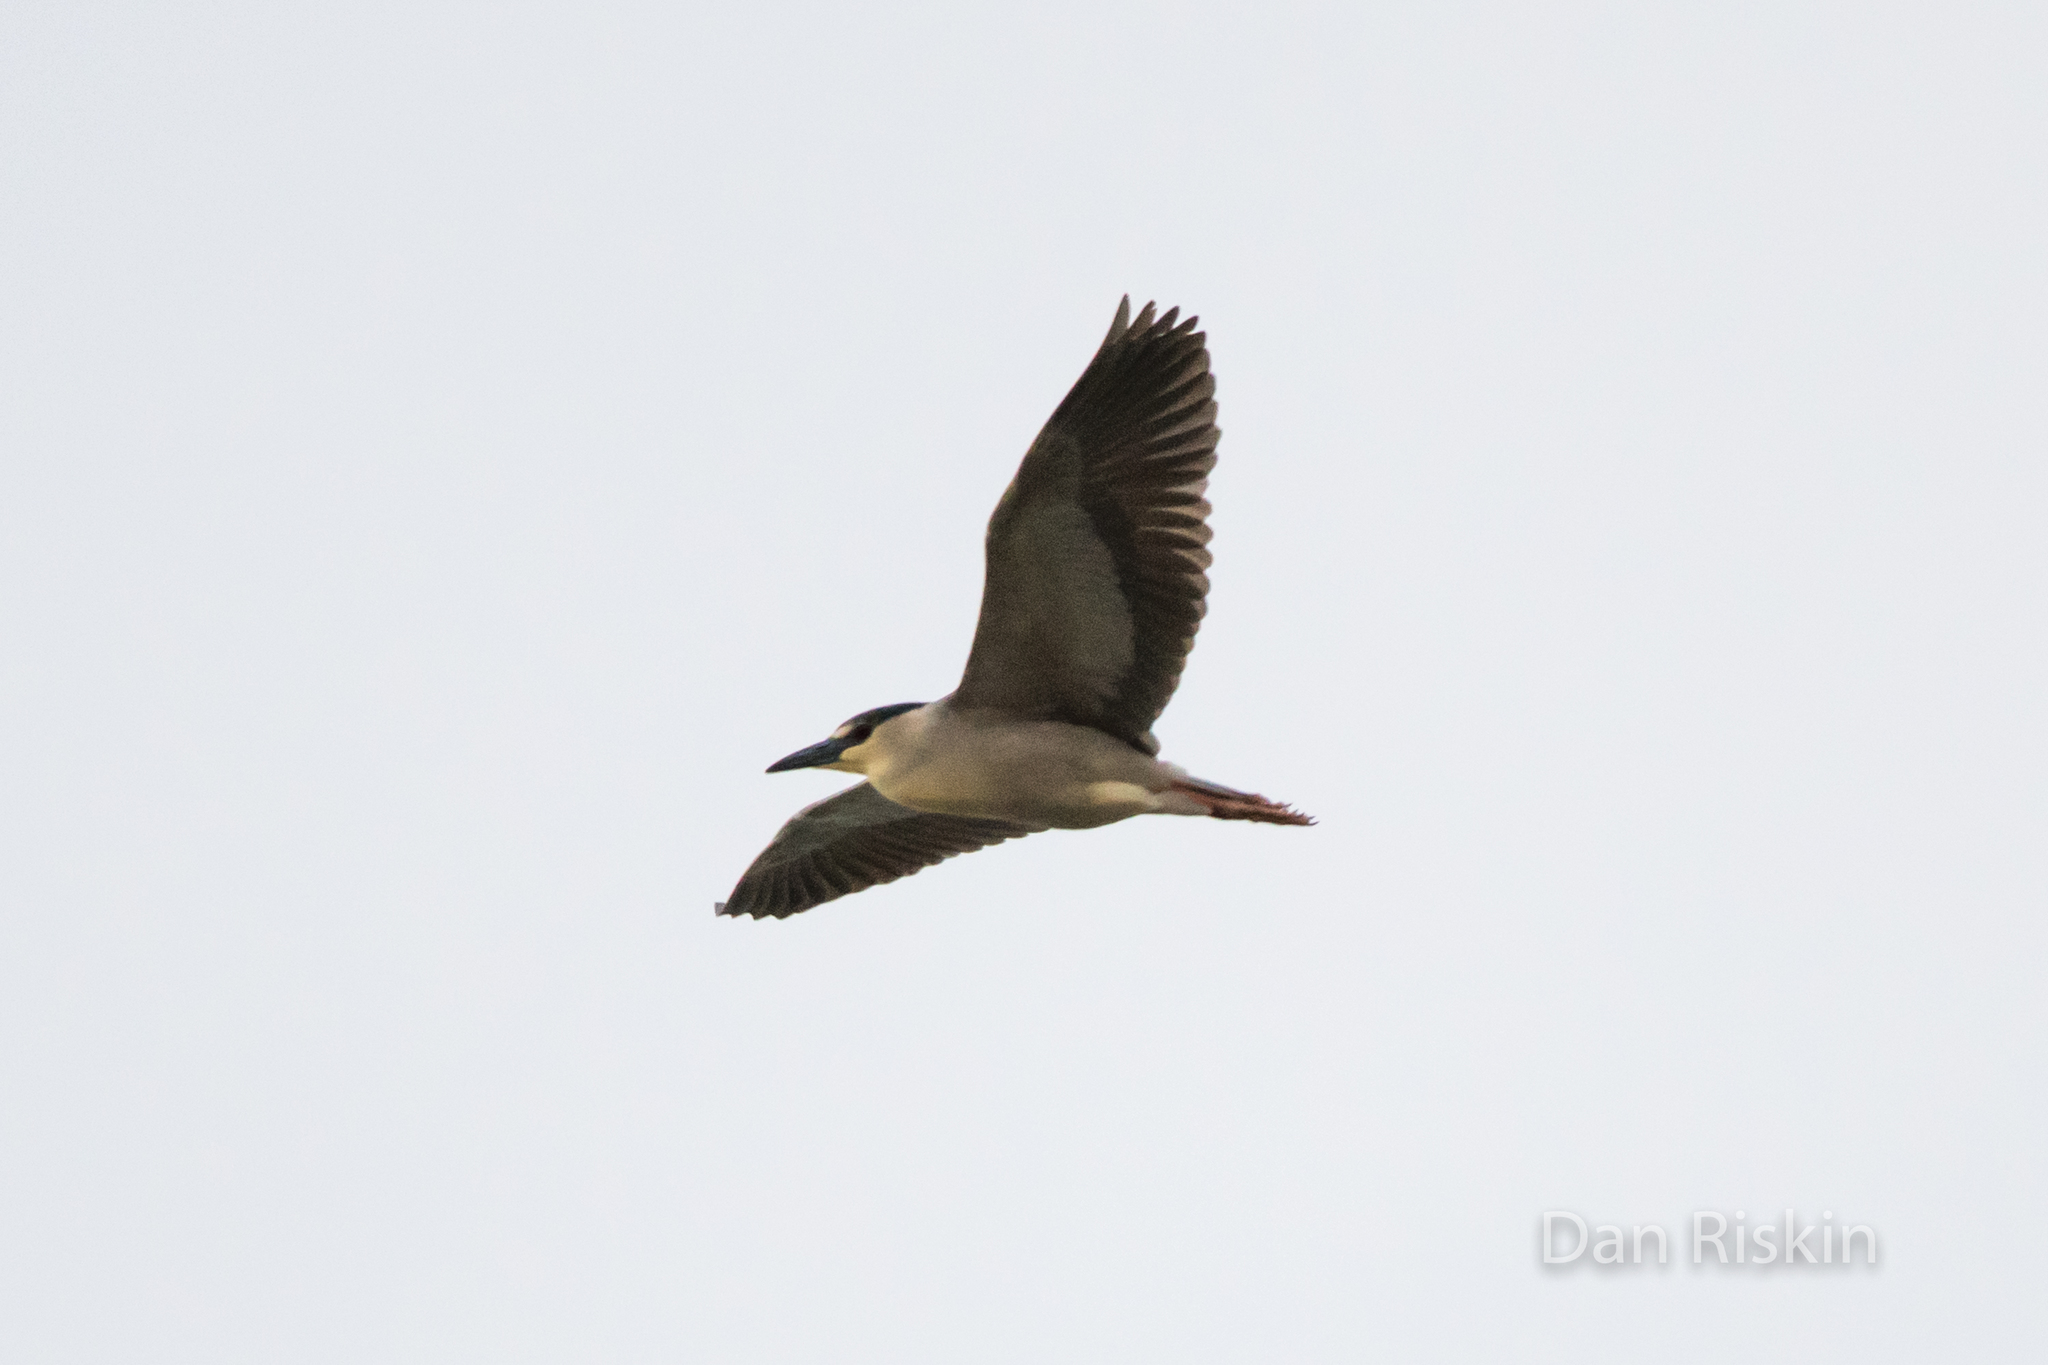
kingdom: Animalia
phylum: Chordata
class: Aves
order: Pelecaniformes
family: Ardeidae
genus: Nycticorax
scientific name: Nycticorax nycticorax
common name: Black-crowned night heron
